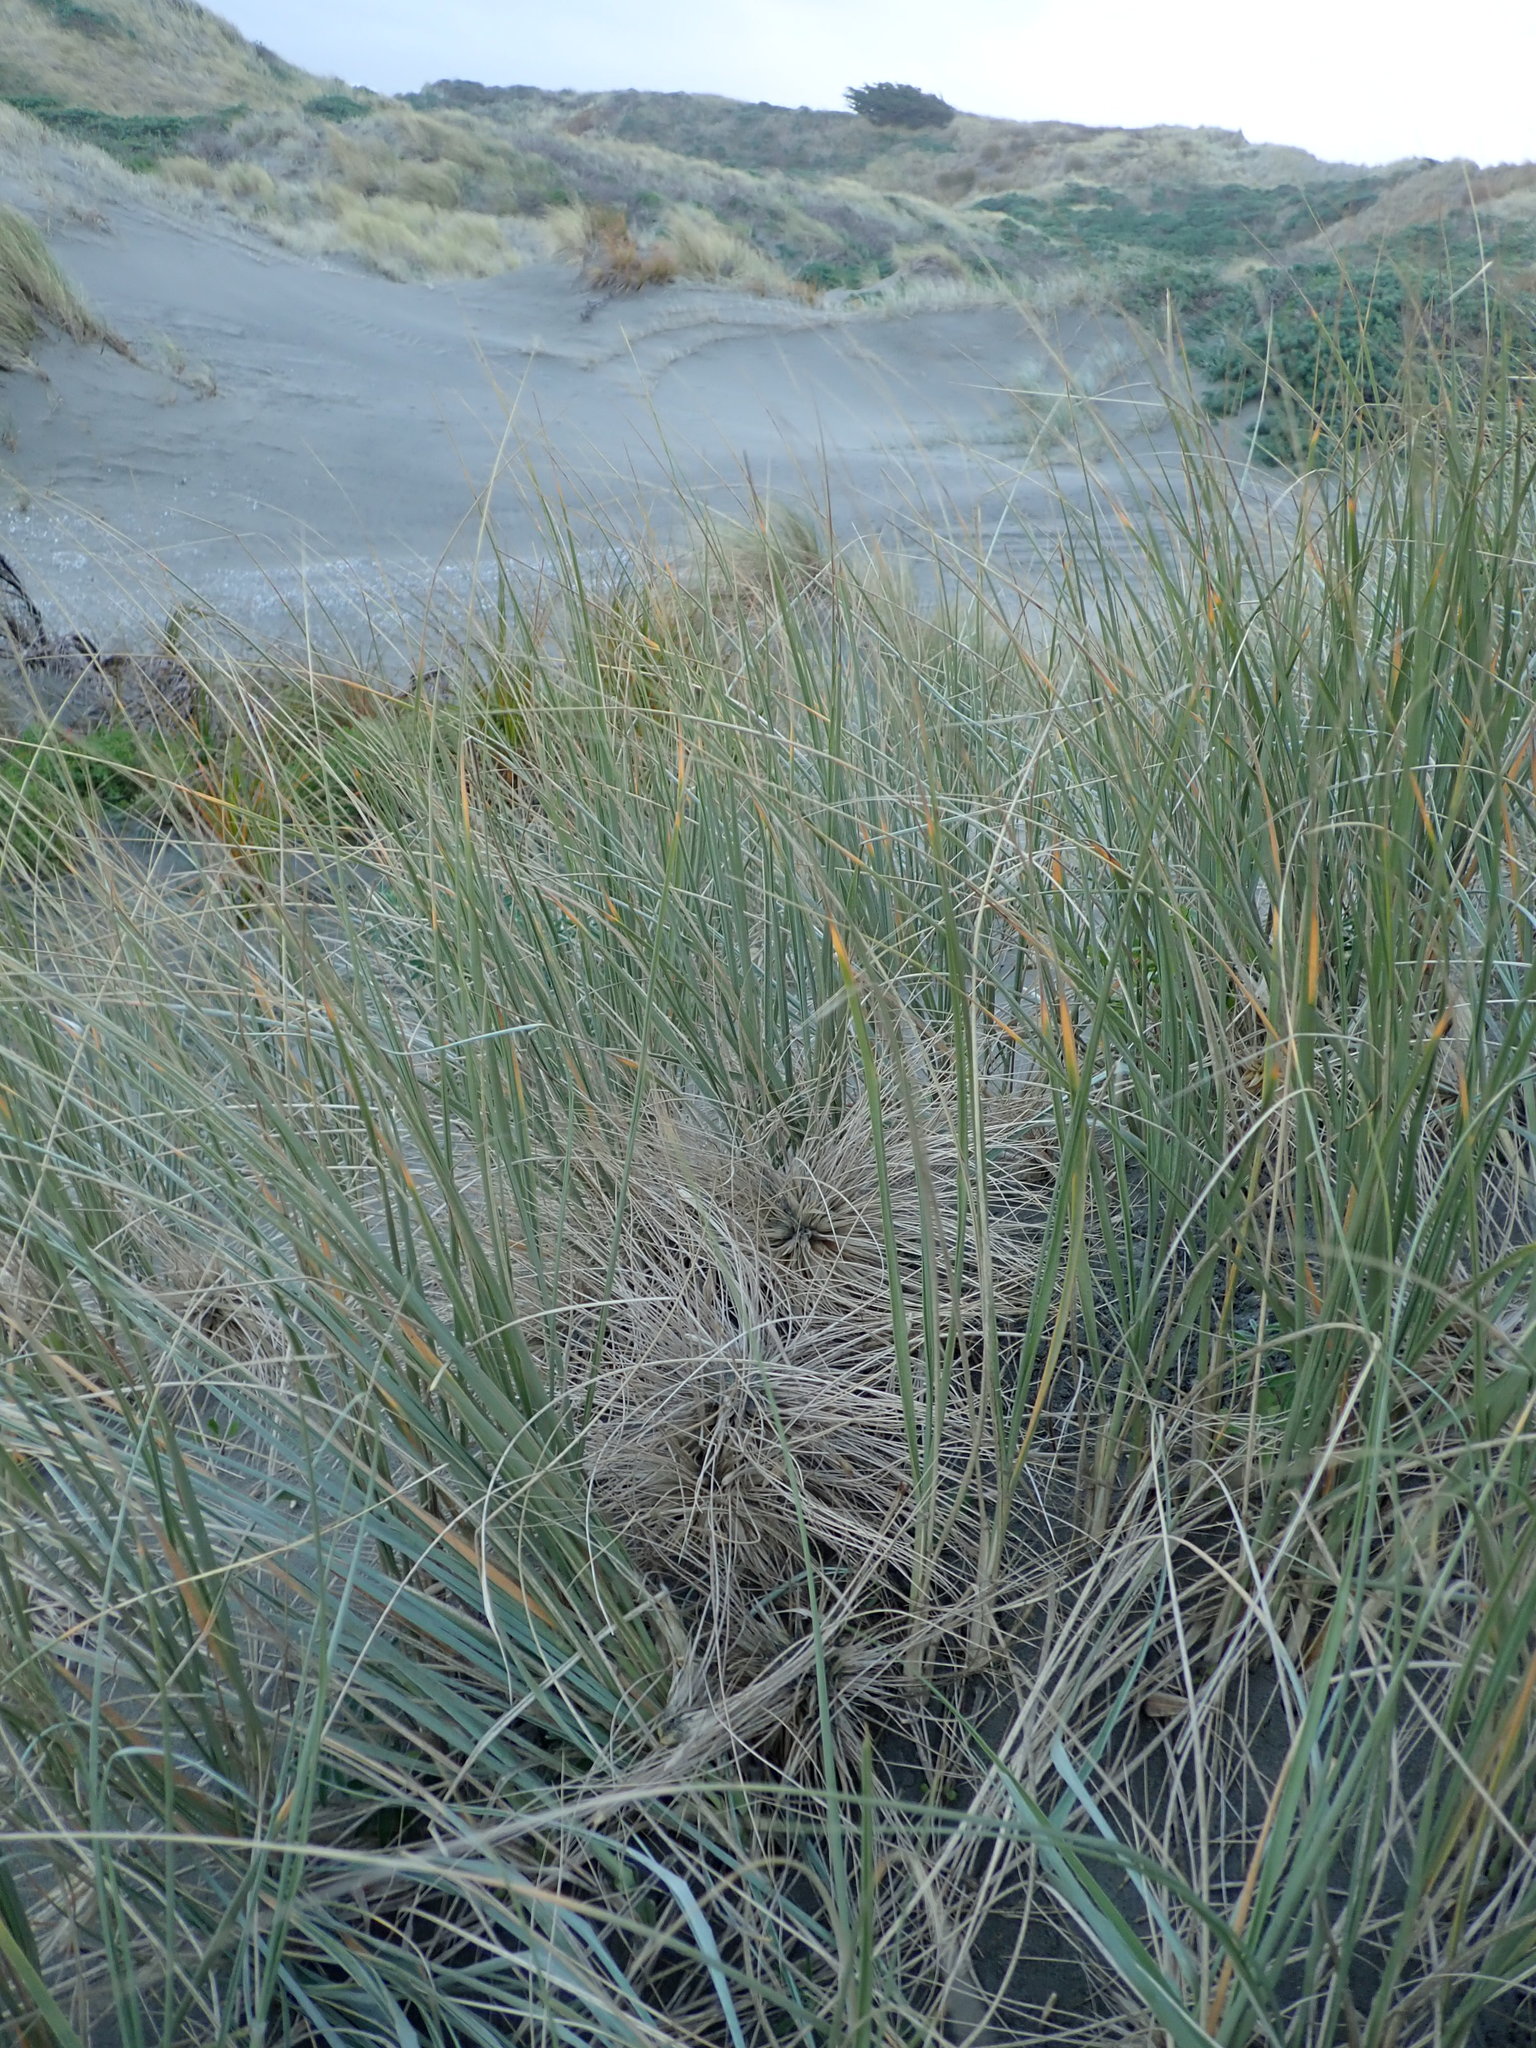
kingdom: Animalia
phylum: Arthropoda
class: Arachnida
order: Araneae
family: Theridiidae
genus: Latrodectus
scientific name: Latrodectus katipo
